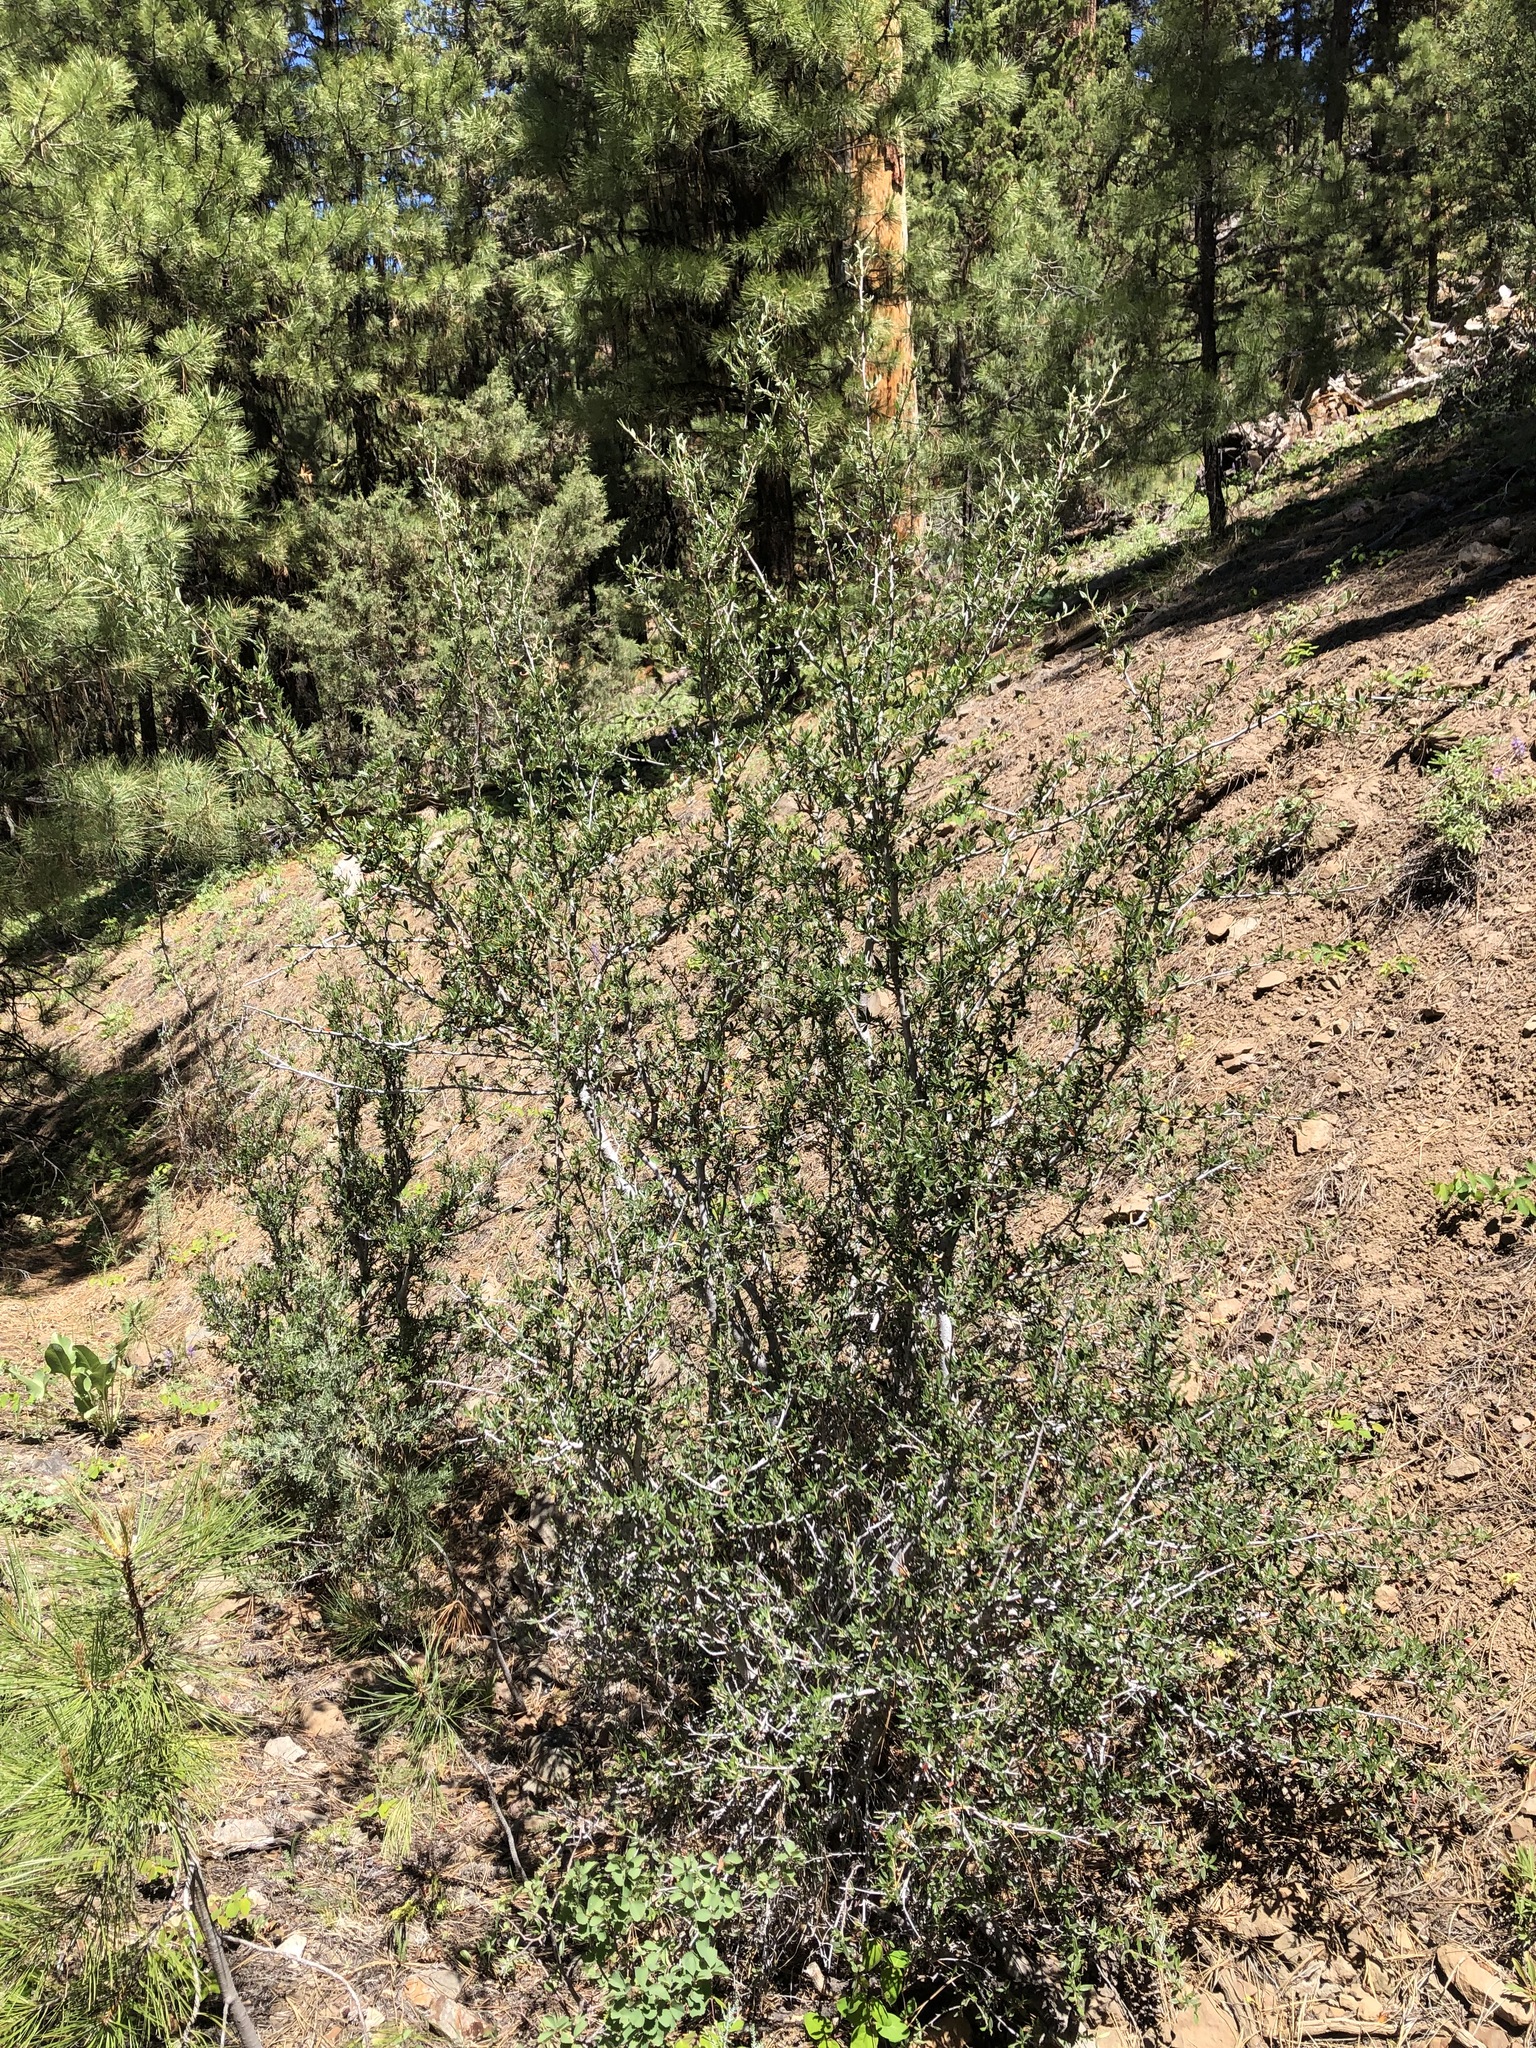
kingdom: Plantae
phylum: Tracheophyta
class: Magnoliopsida
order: Rosales
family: Rosaceae
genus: Cercocarpus
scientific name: Cercocarpus ledifolius
